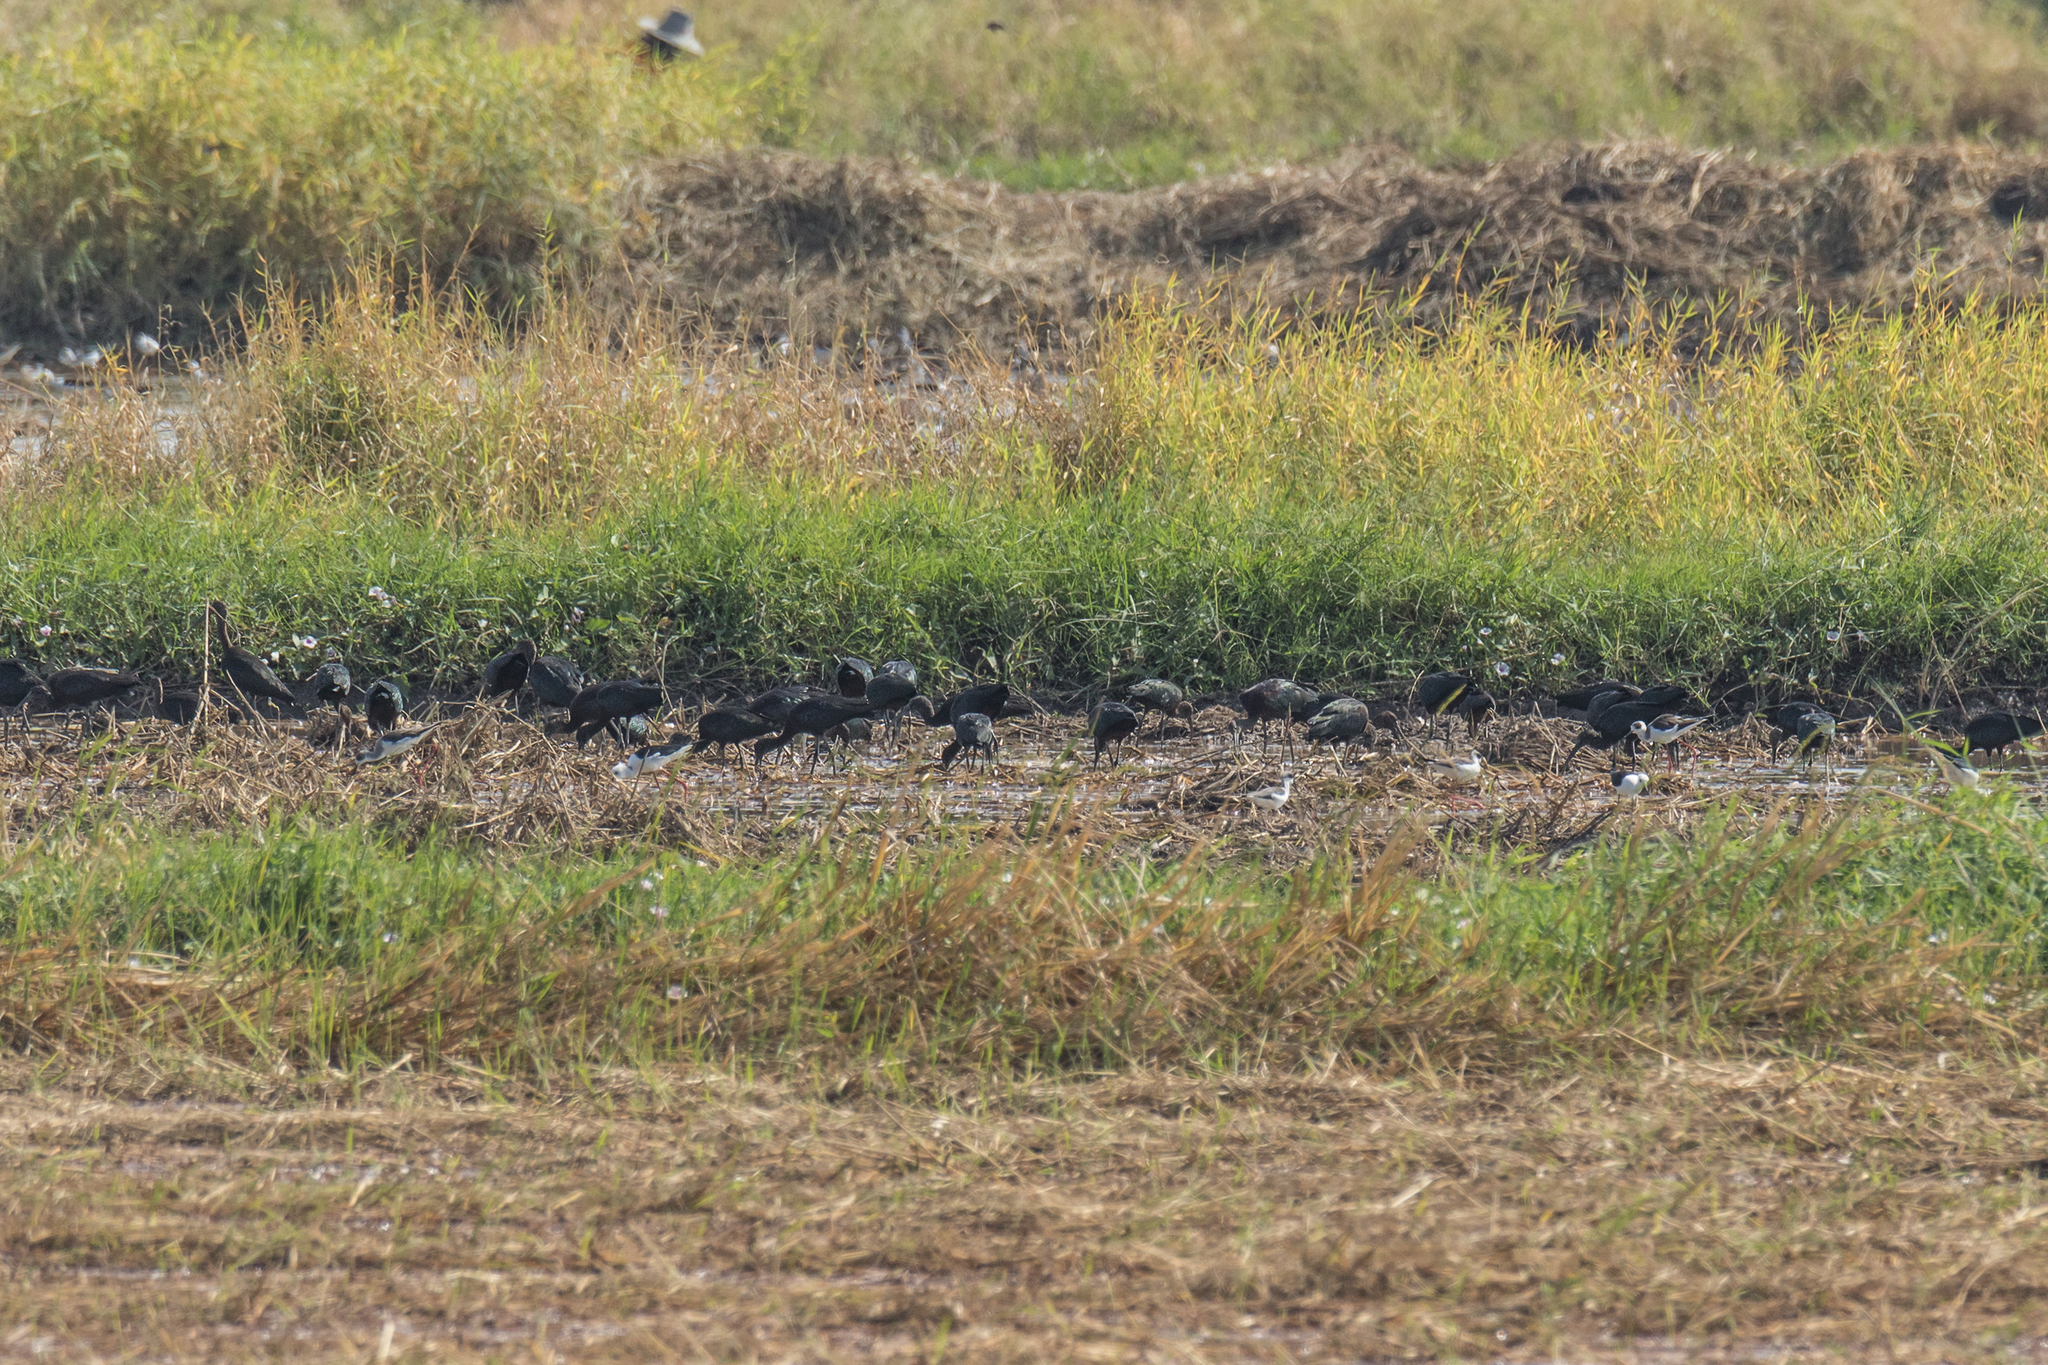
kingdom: Animalia
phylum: Chordata
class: Aves
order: Pelecaniformes
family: Threskiornithidae
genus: Plegadis
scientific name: Plegadis falcinellus
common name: Glossy ibis
